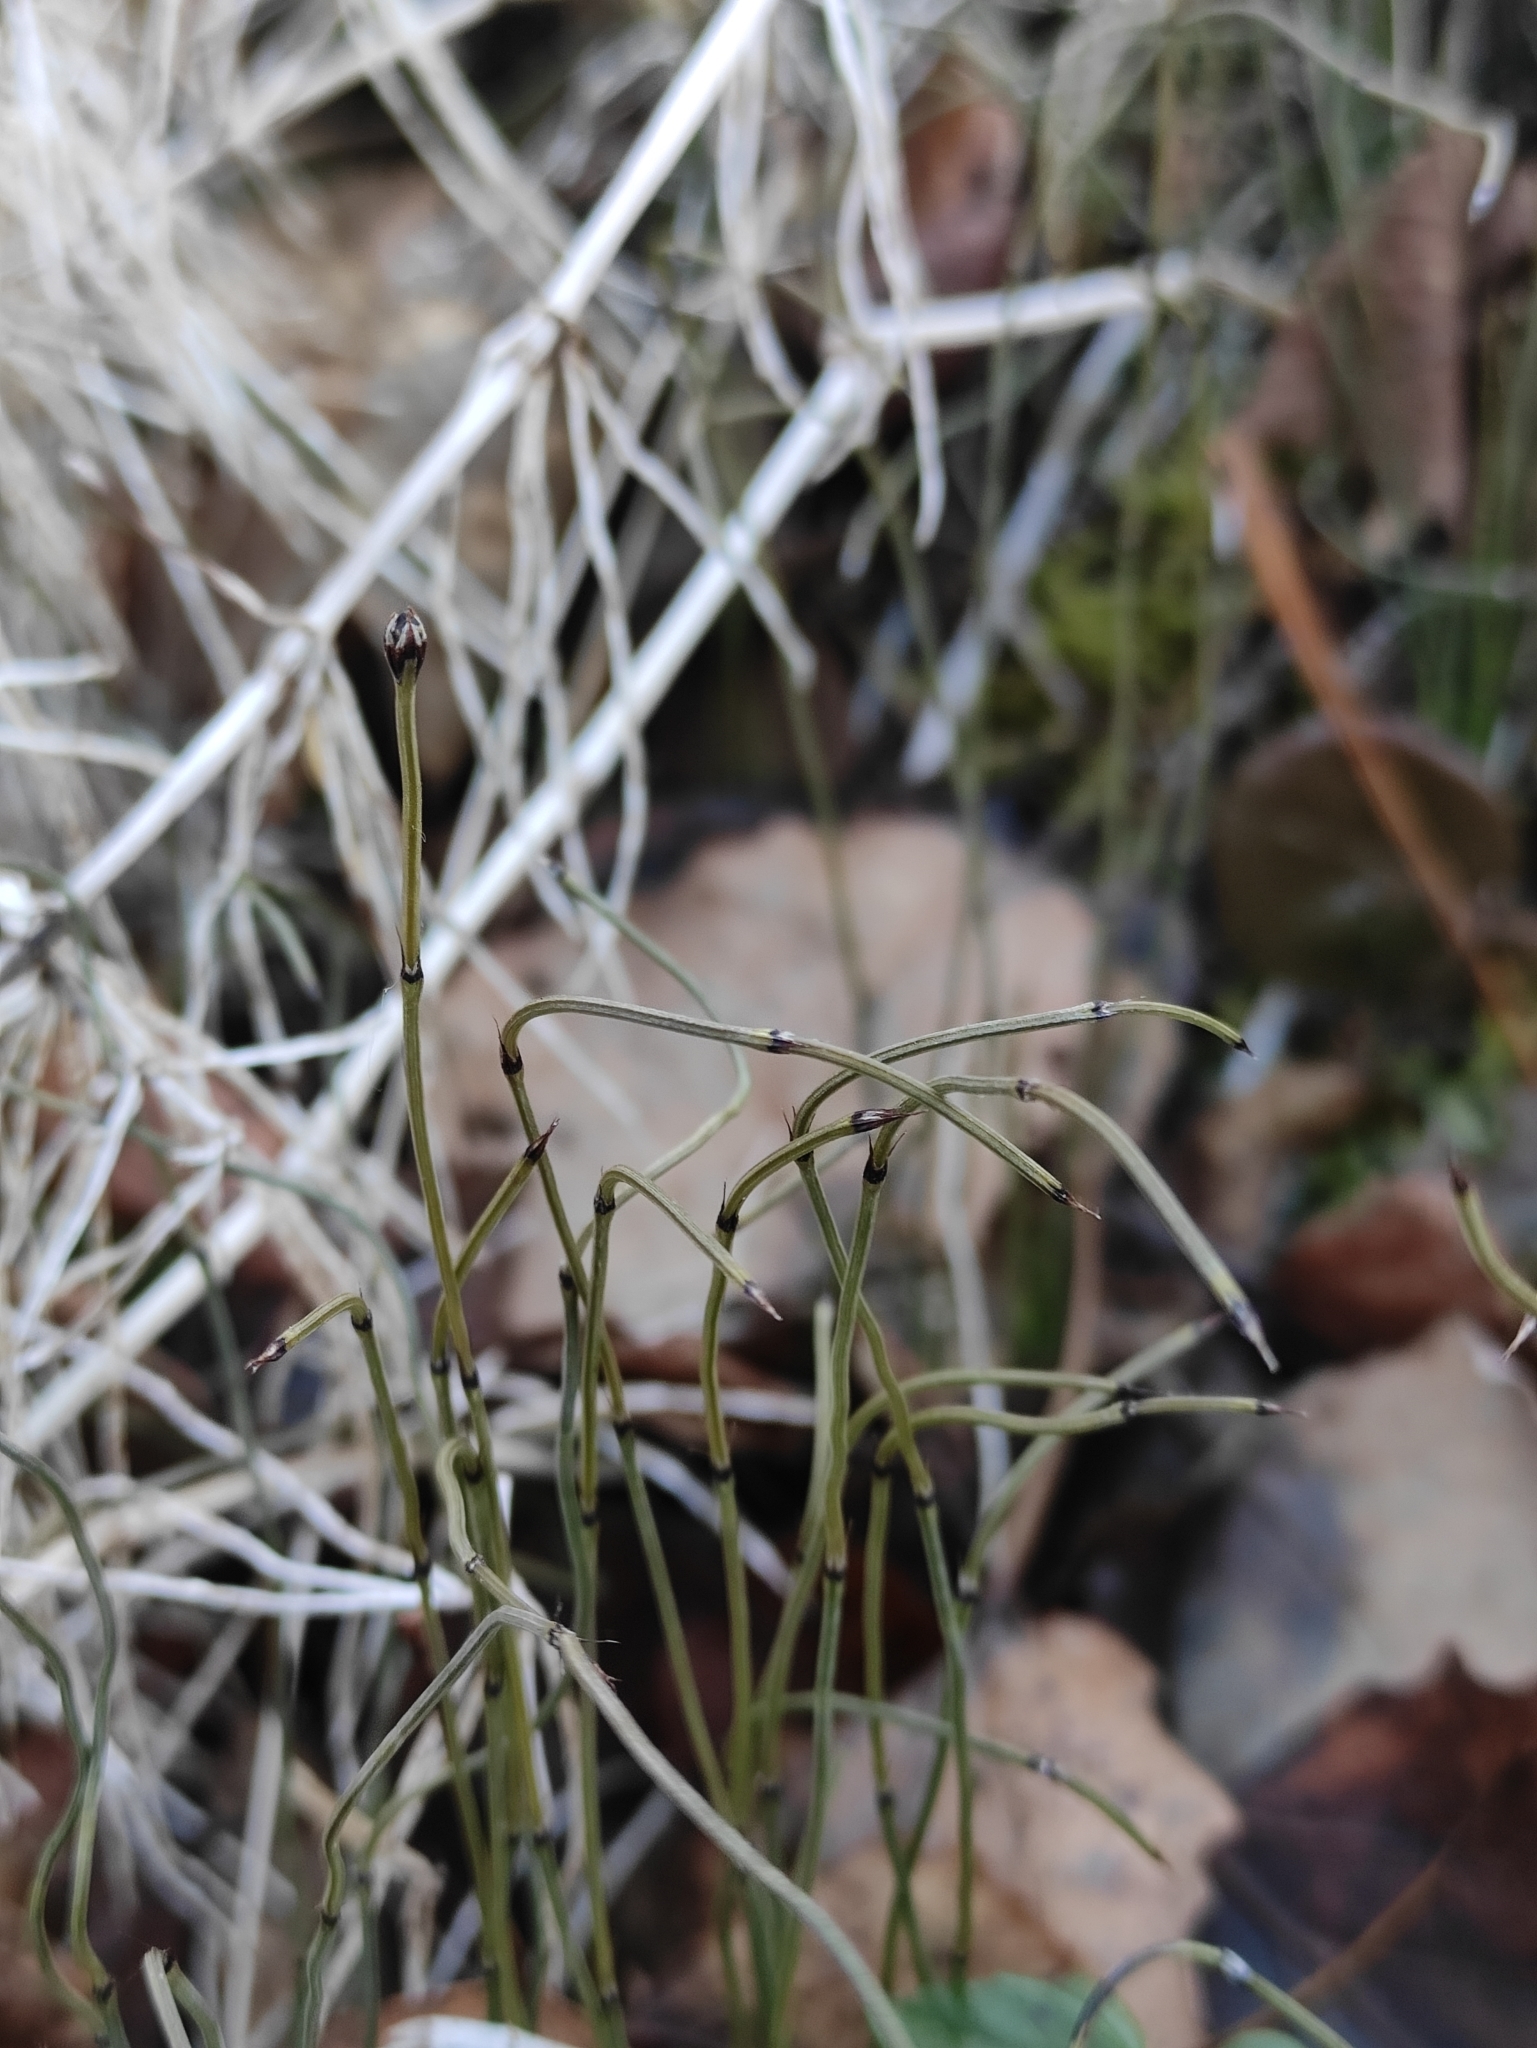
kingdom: Plantae
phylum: Tracheophyta
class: Polypodiopsida
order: Equisetales
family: Equisetaceae
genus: Equisetum
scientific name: Equisetum scirpoides
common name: Delicate horsetail
